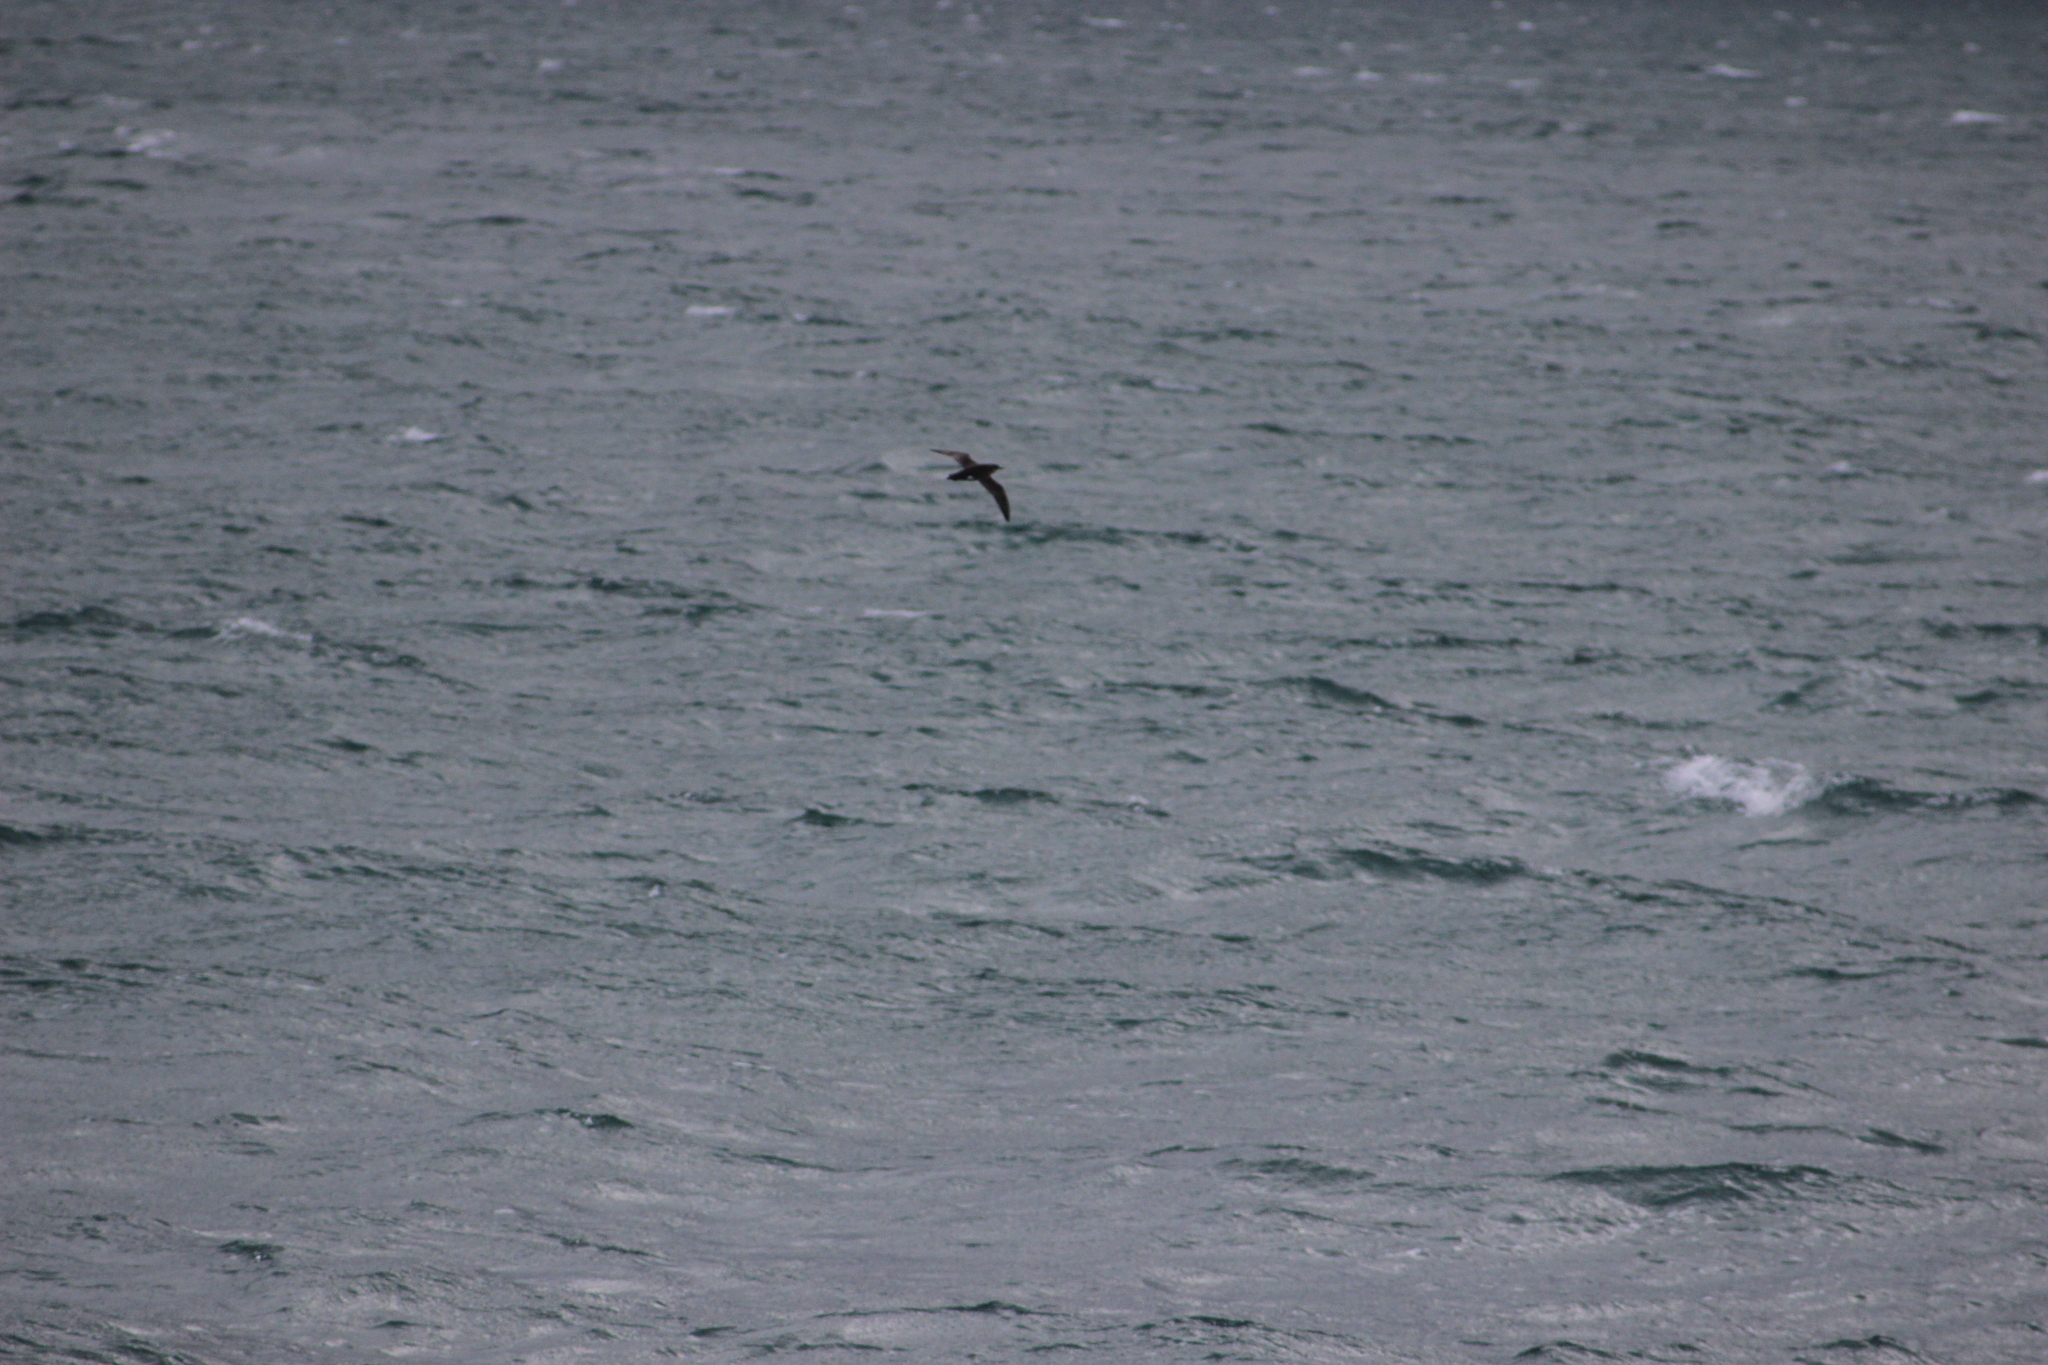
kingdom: Animalia
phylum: Chordata
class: Aves
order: Procellariiformes
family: Procellariidae
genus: Puffinus
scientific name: Puffinus gavia
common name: Fluttering shearwater
